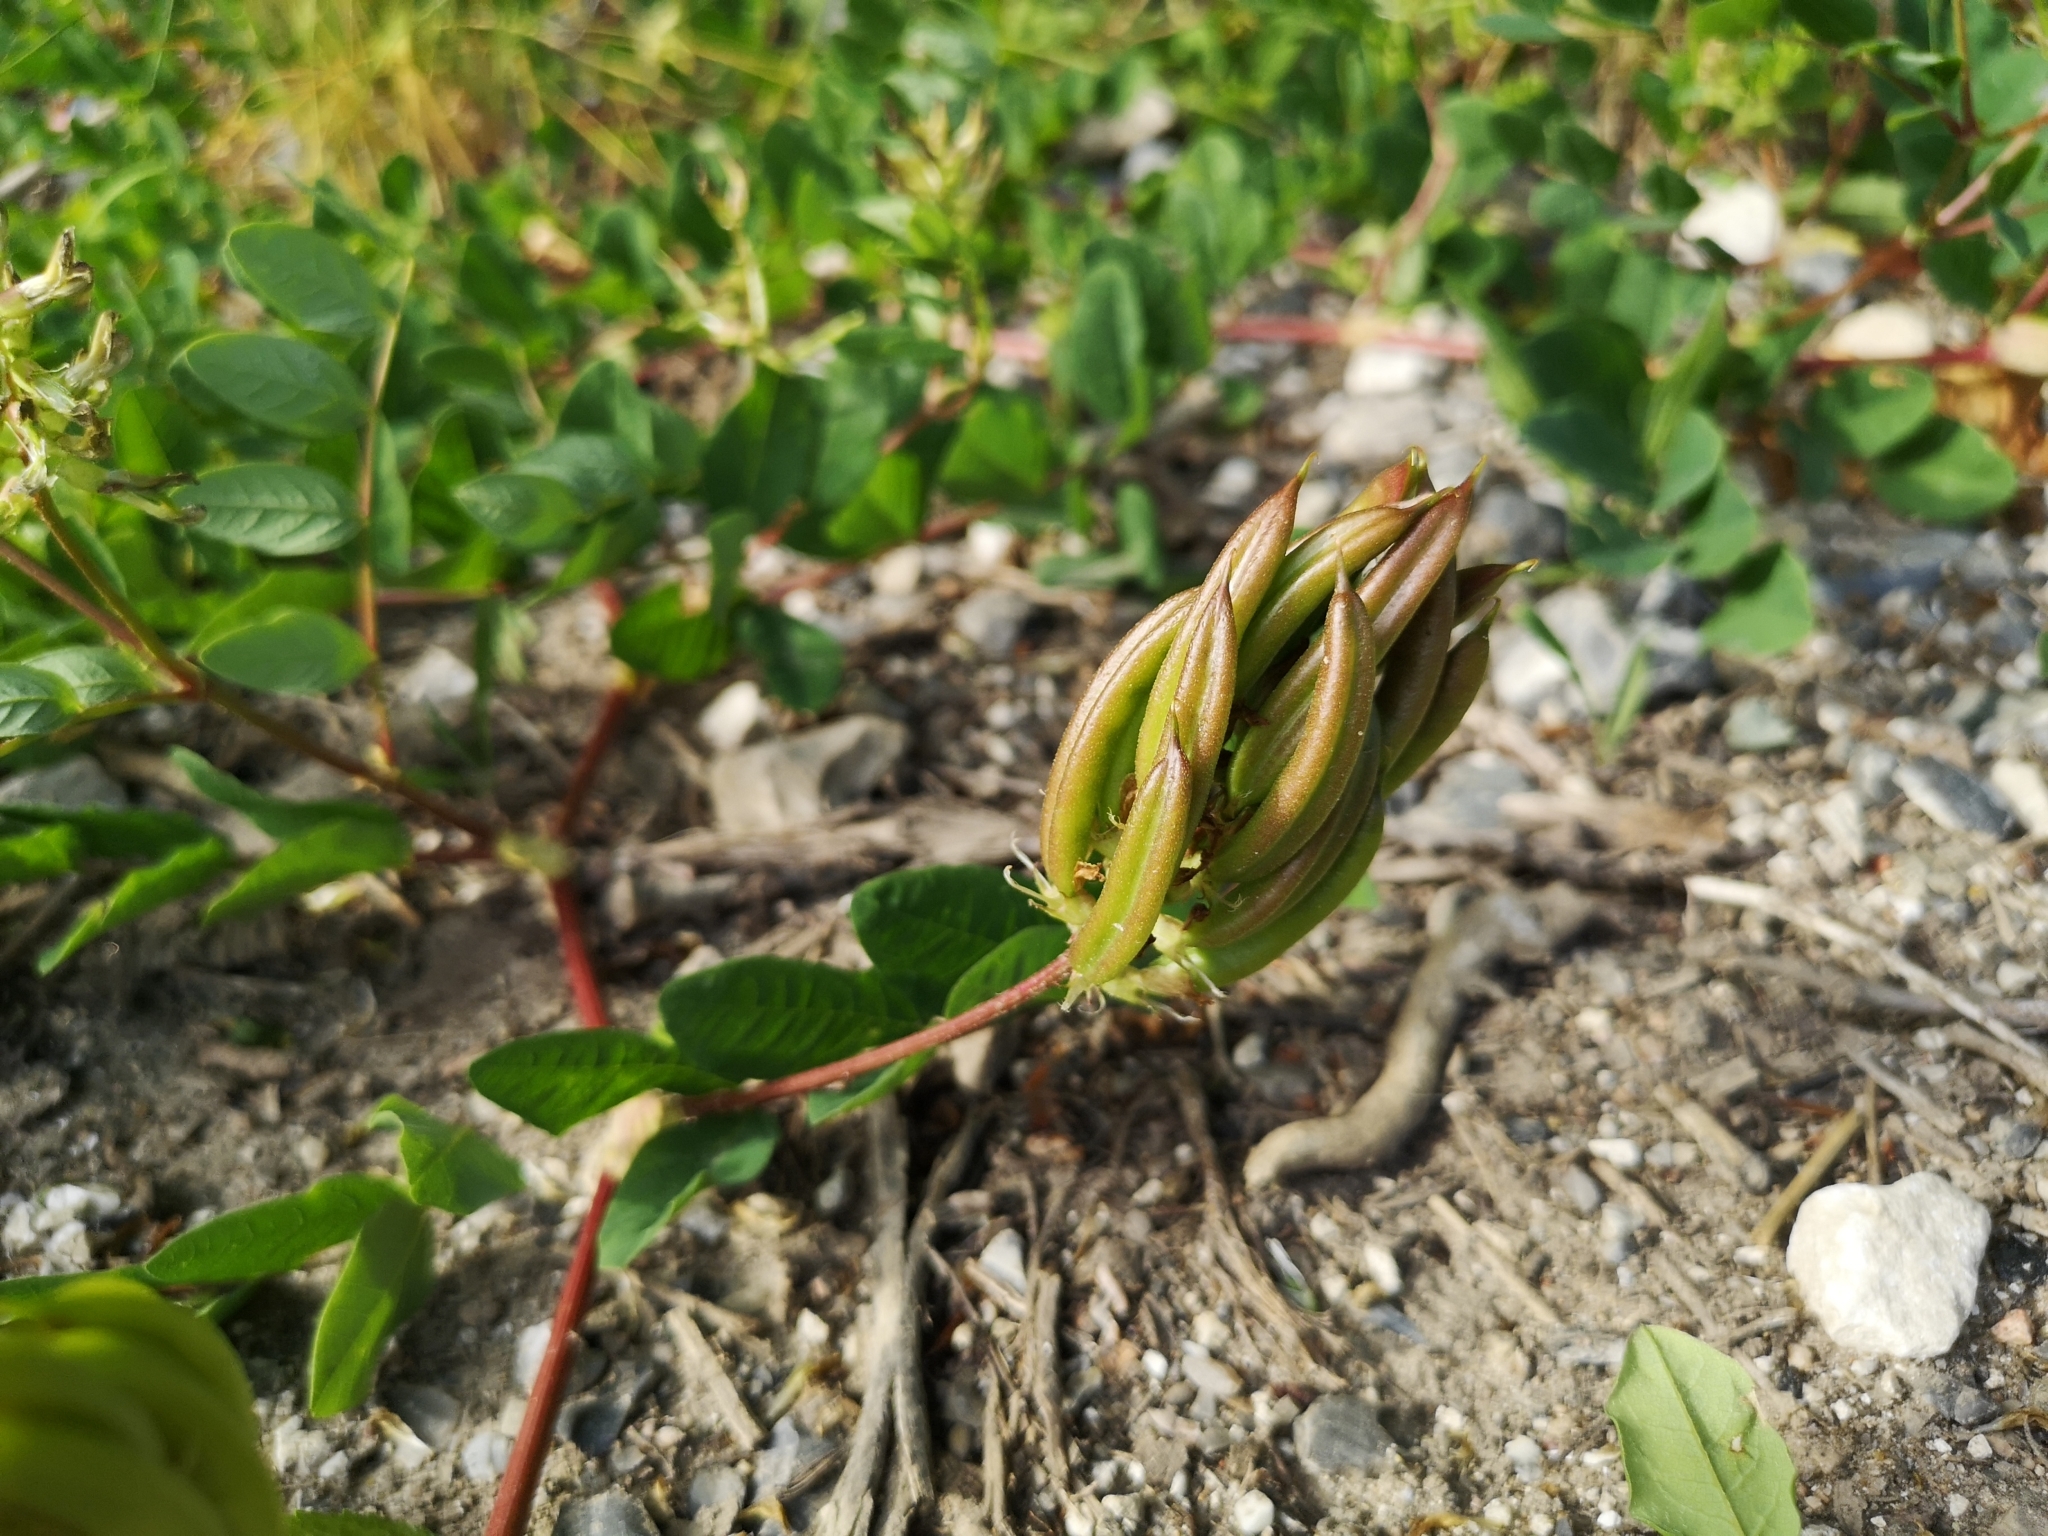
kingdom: Plantae
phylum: Tracheophyta
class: Magnoliopsida
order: Fabales
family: Fabaceae
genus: Astragalus
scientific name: Astragalus glycyphyllos
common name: Wild liquorice
